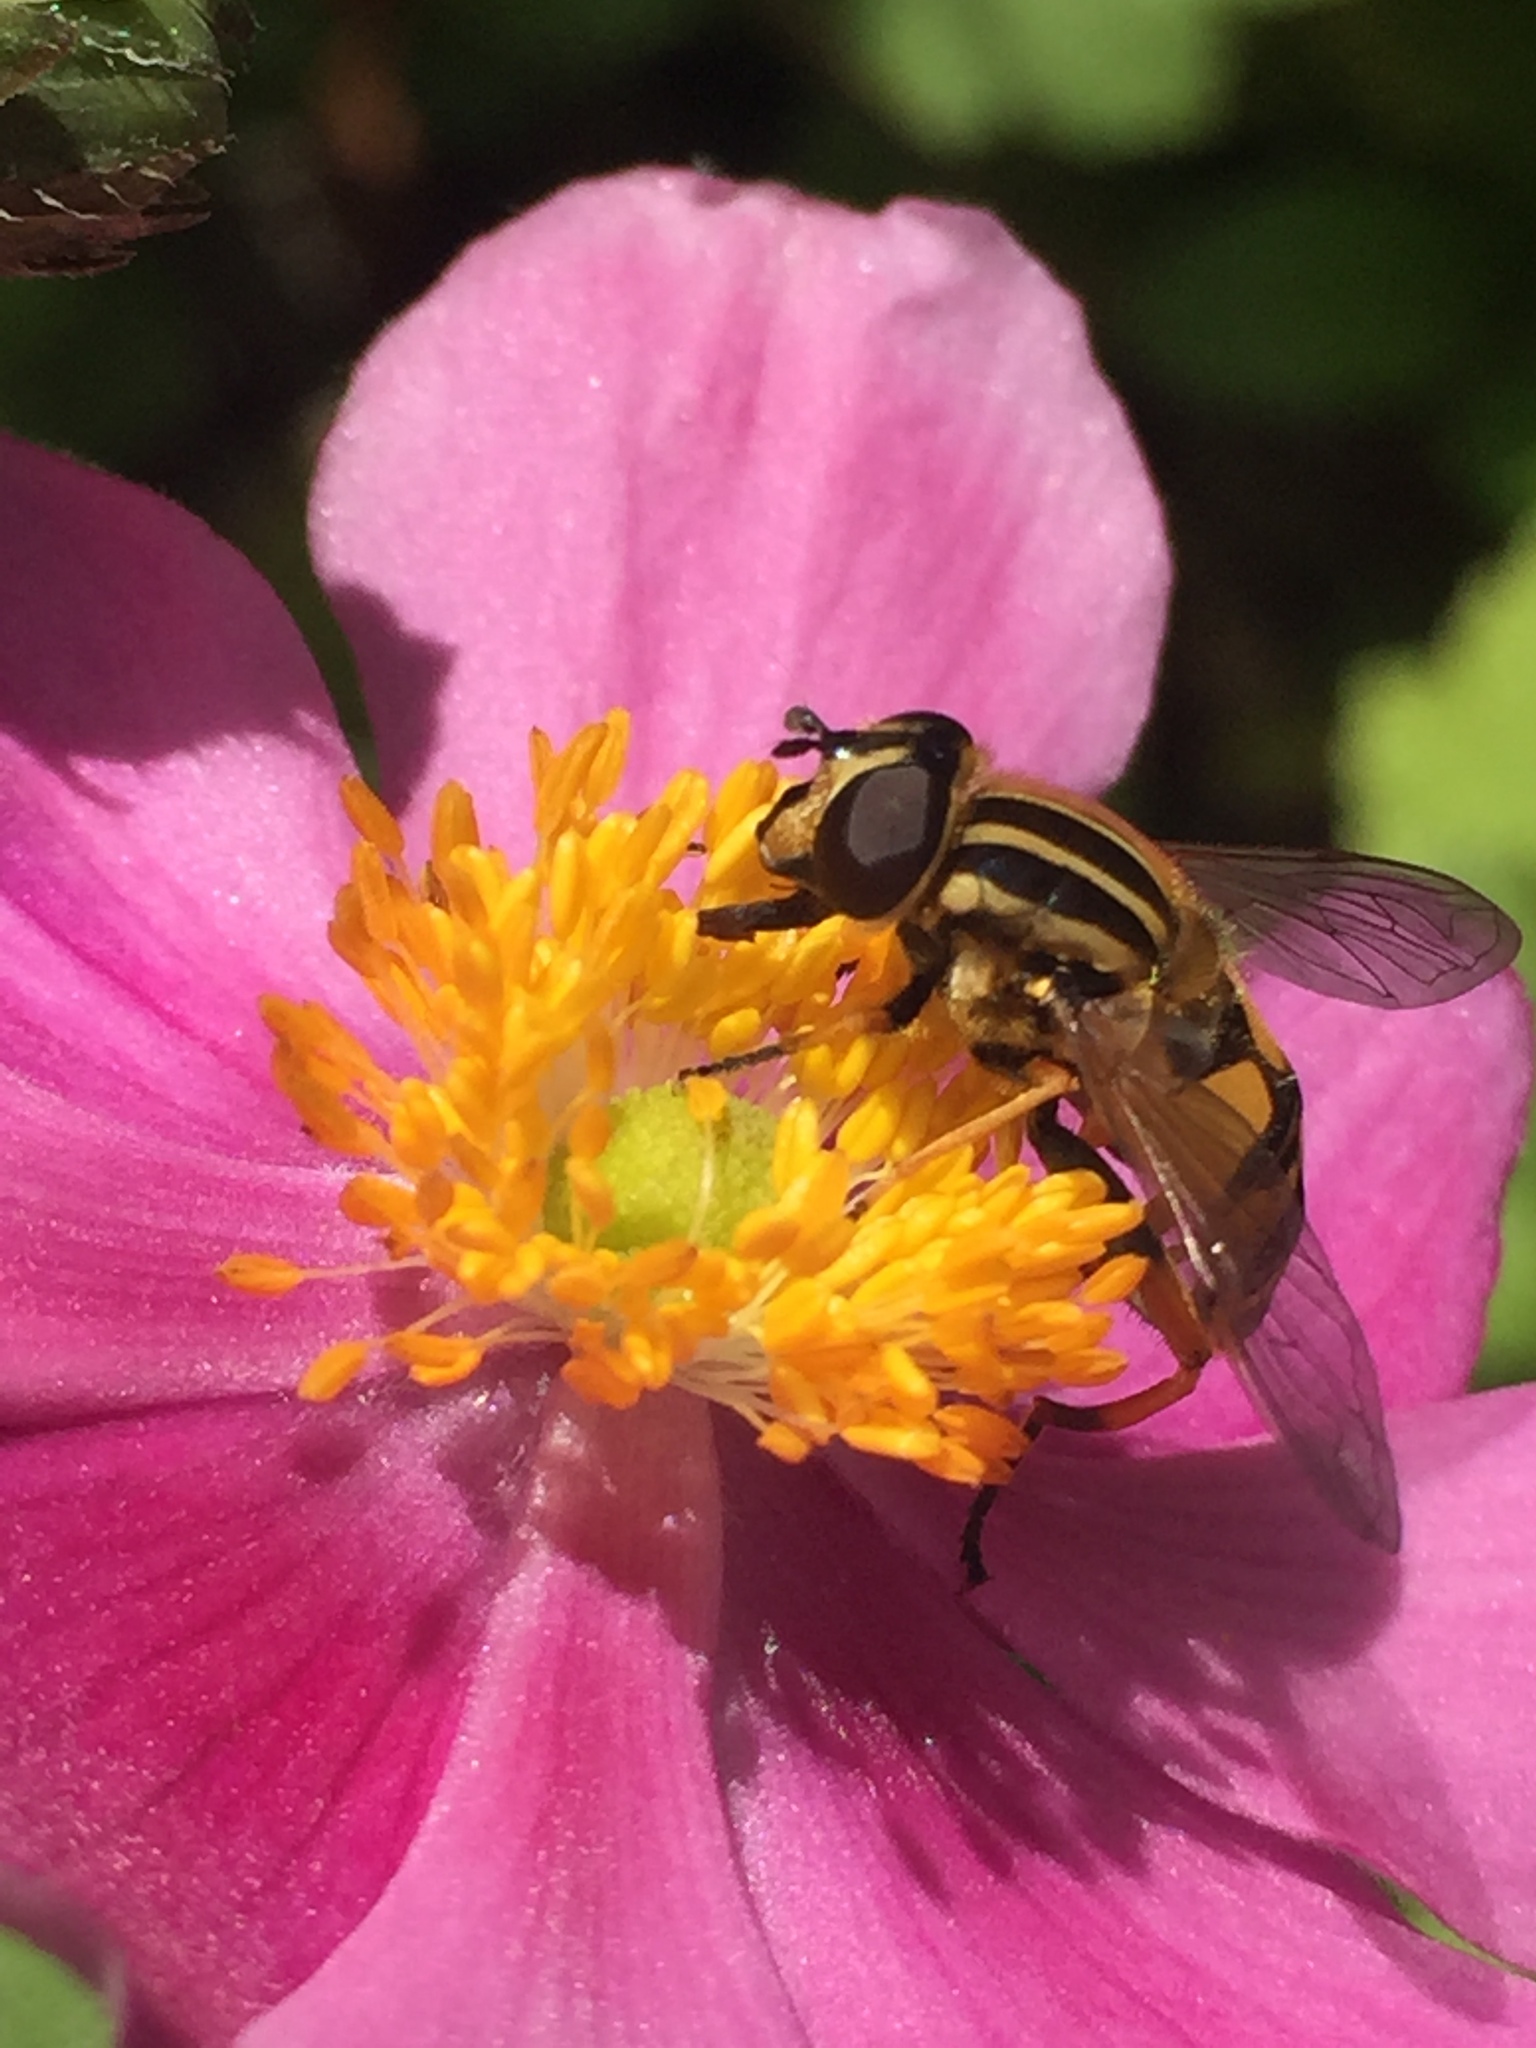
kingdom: Animalia
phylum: Arthropoda
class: Insecta
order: Diptera
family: Syrphidae
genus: Helophilus
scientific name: Helophilus pendulus
